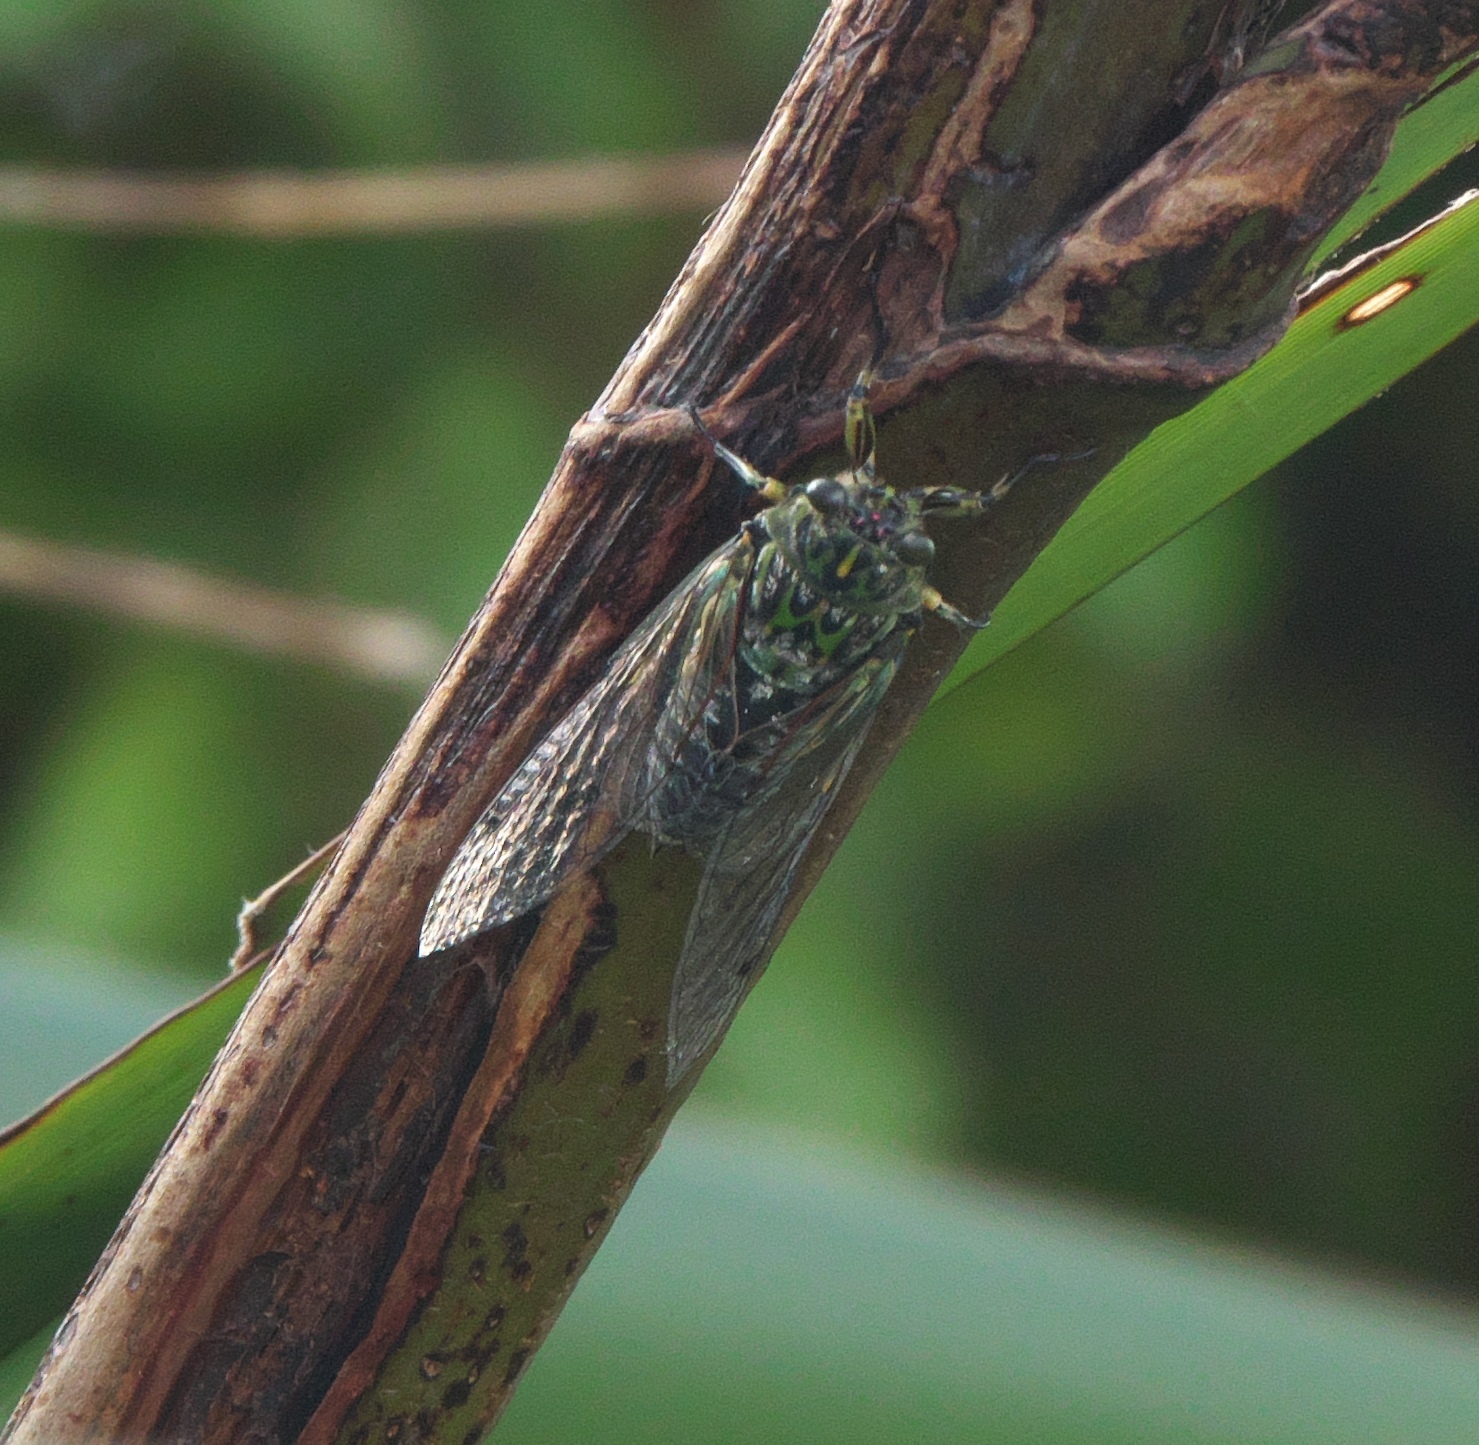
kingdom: Animalia
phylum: Arthropoda
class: Insecta
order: Hemiptera
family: Cicadidae
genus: Amphipsalta
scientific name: Amphipsalta zelandica
